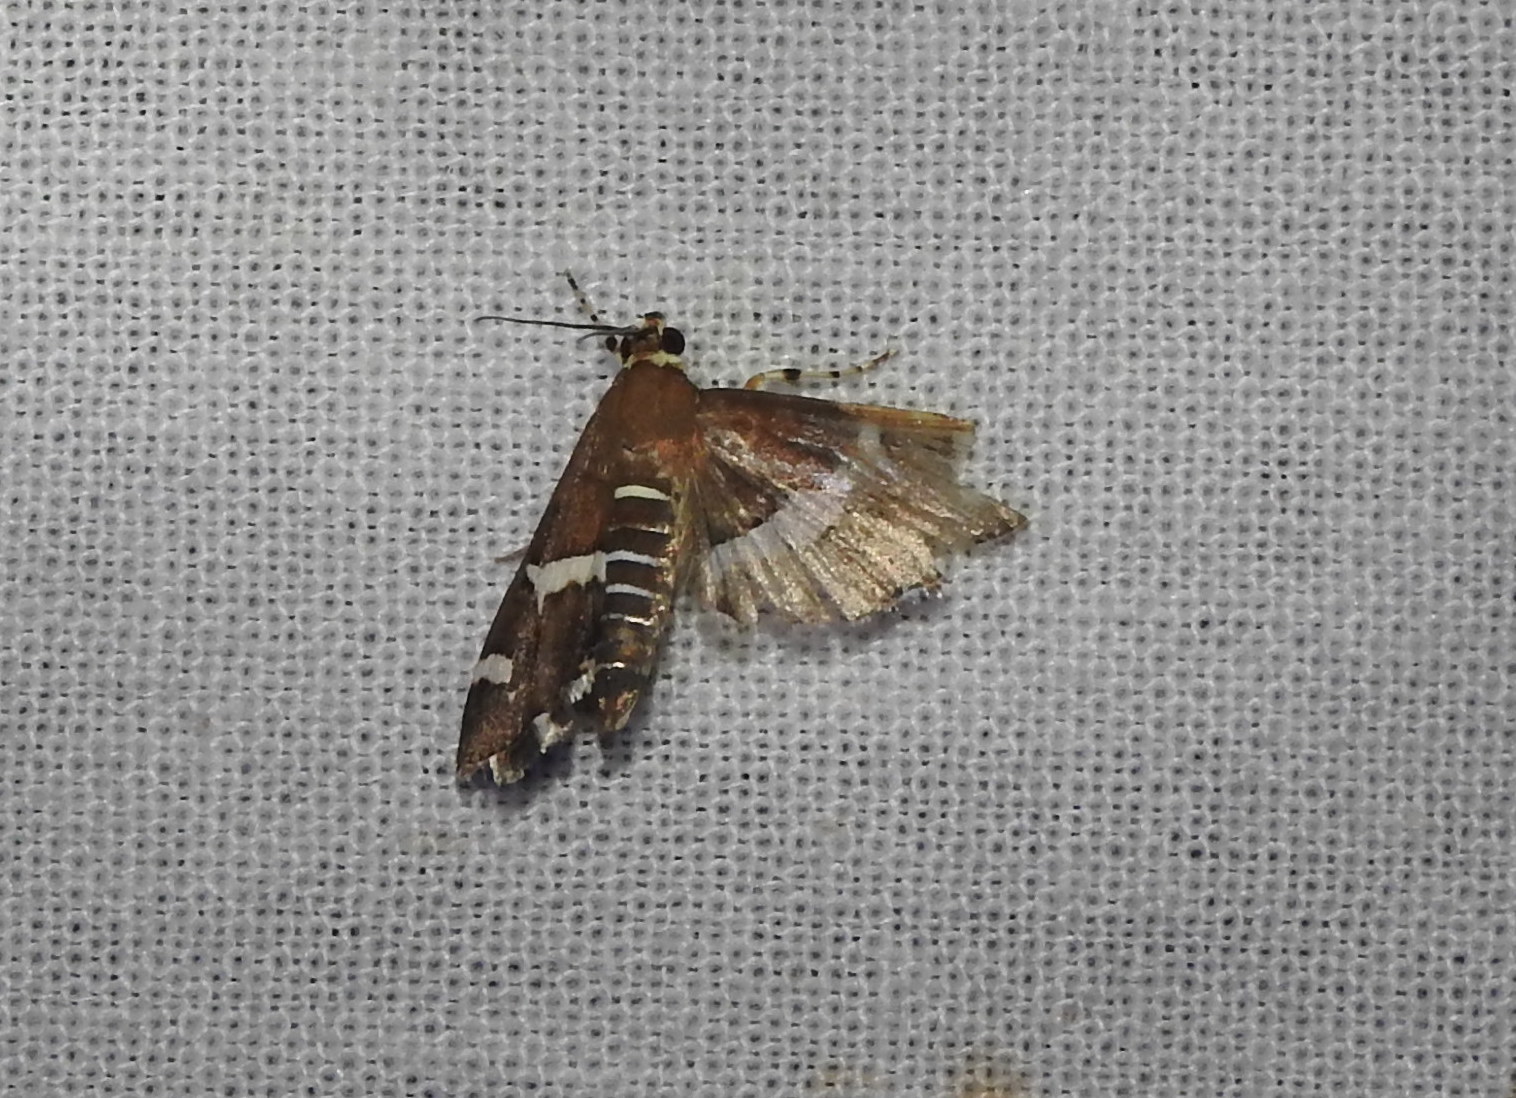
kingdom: Animalia
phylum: Arthropoda
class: Insecta
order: Lepidoptera
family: Crambidae
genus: Spoladea
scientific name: Spoladea recurvalis
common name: Beet webworm moth
